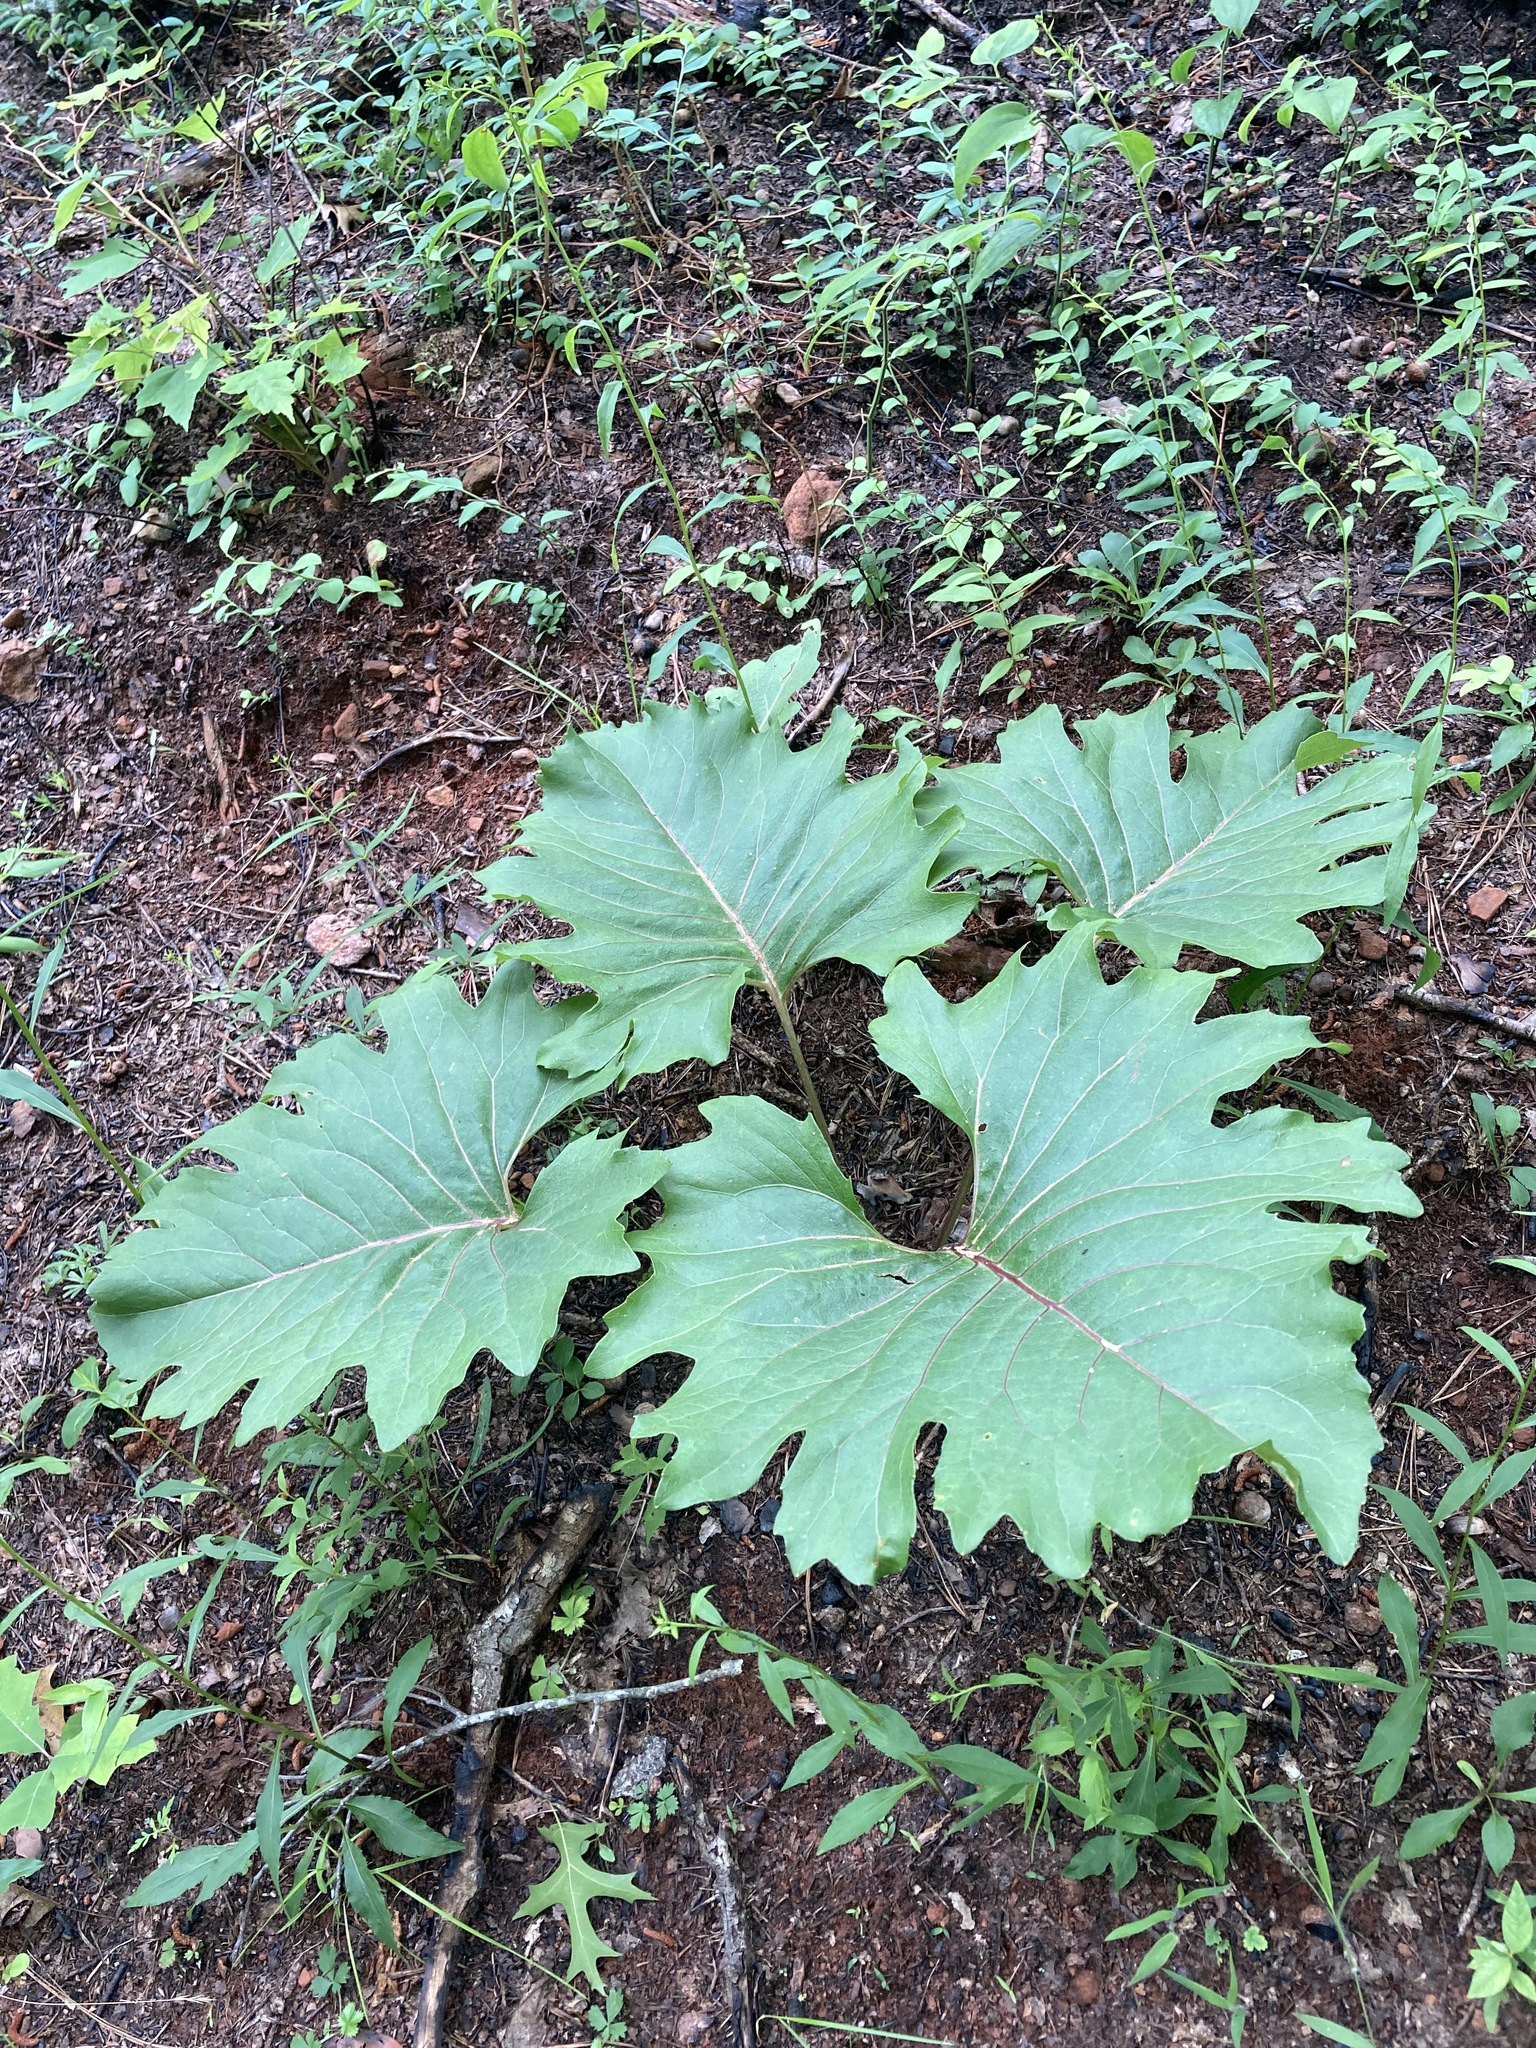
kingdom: Plantae
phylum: Tracheophyta
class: Magnoliopsida
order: Asterales
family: Asteraceae
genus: Silphium
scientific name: Silphium compositum
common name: Lesser basal-leaf rosinweed
